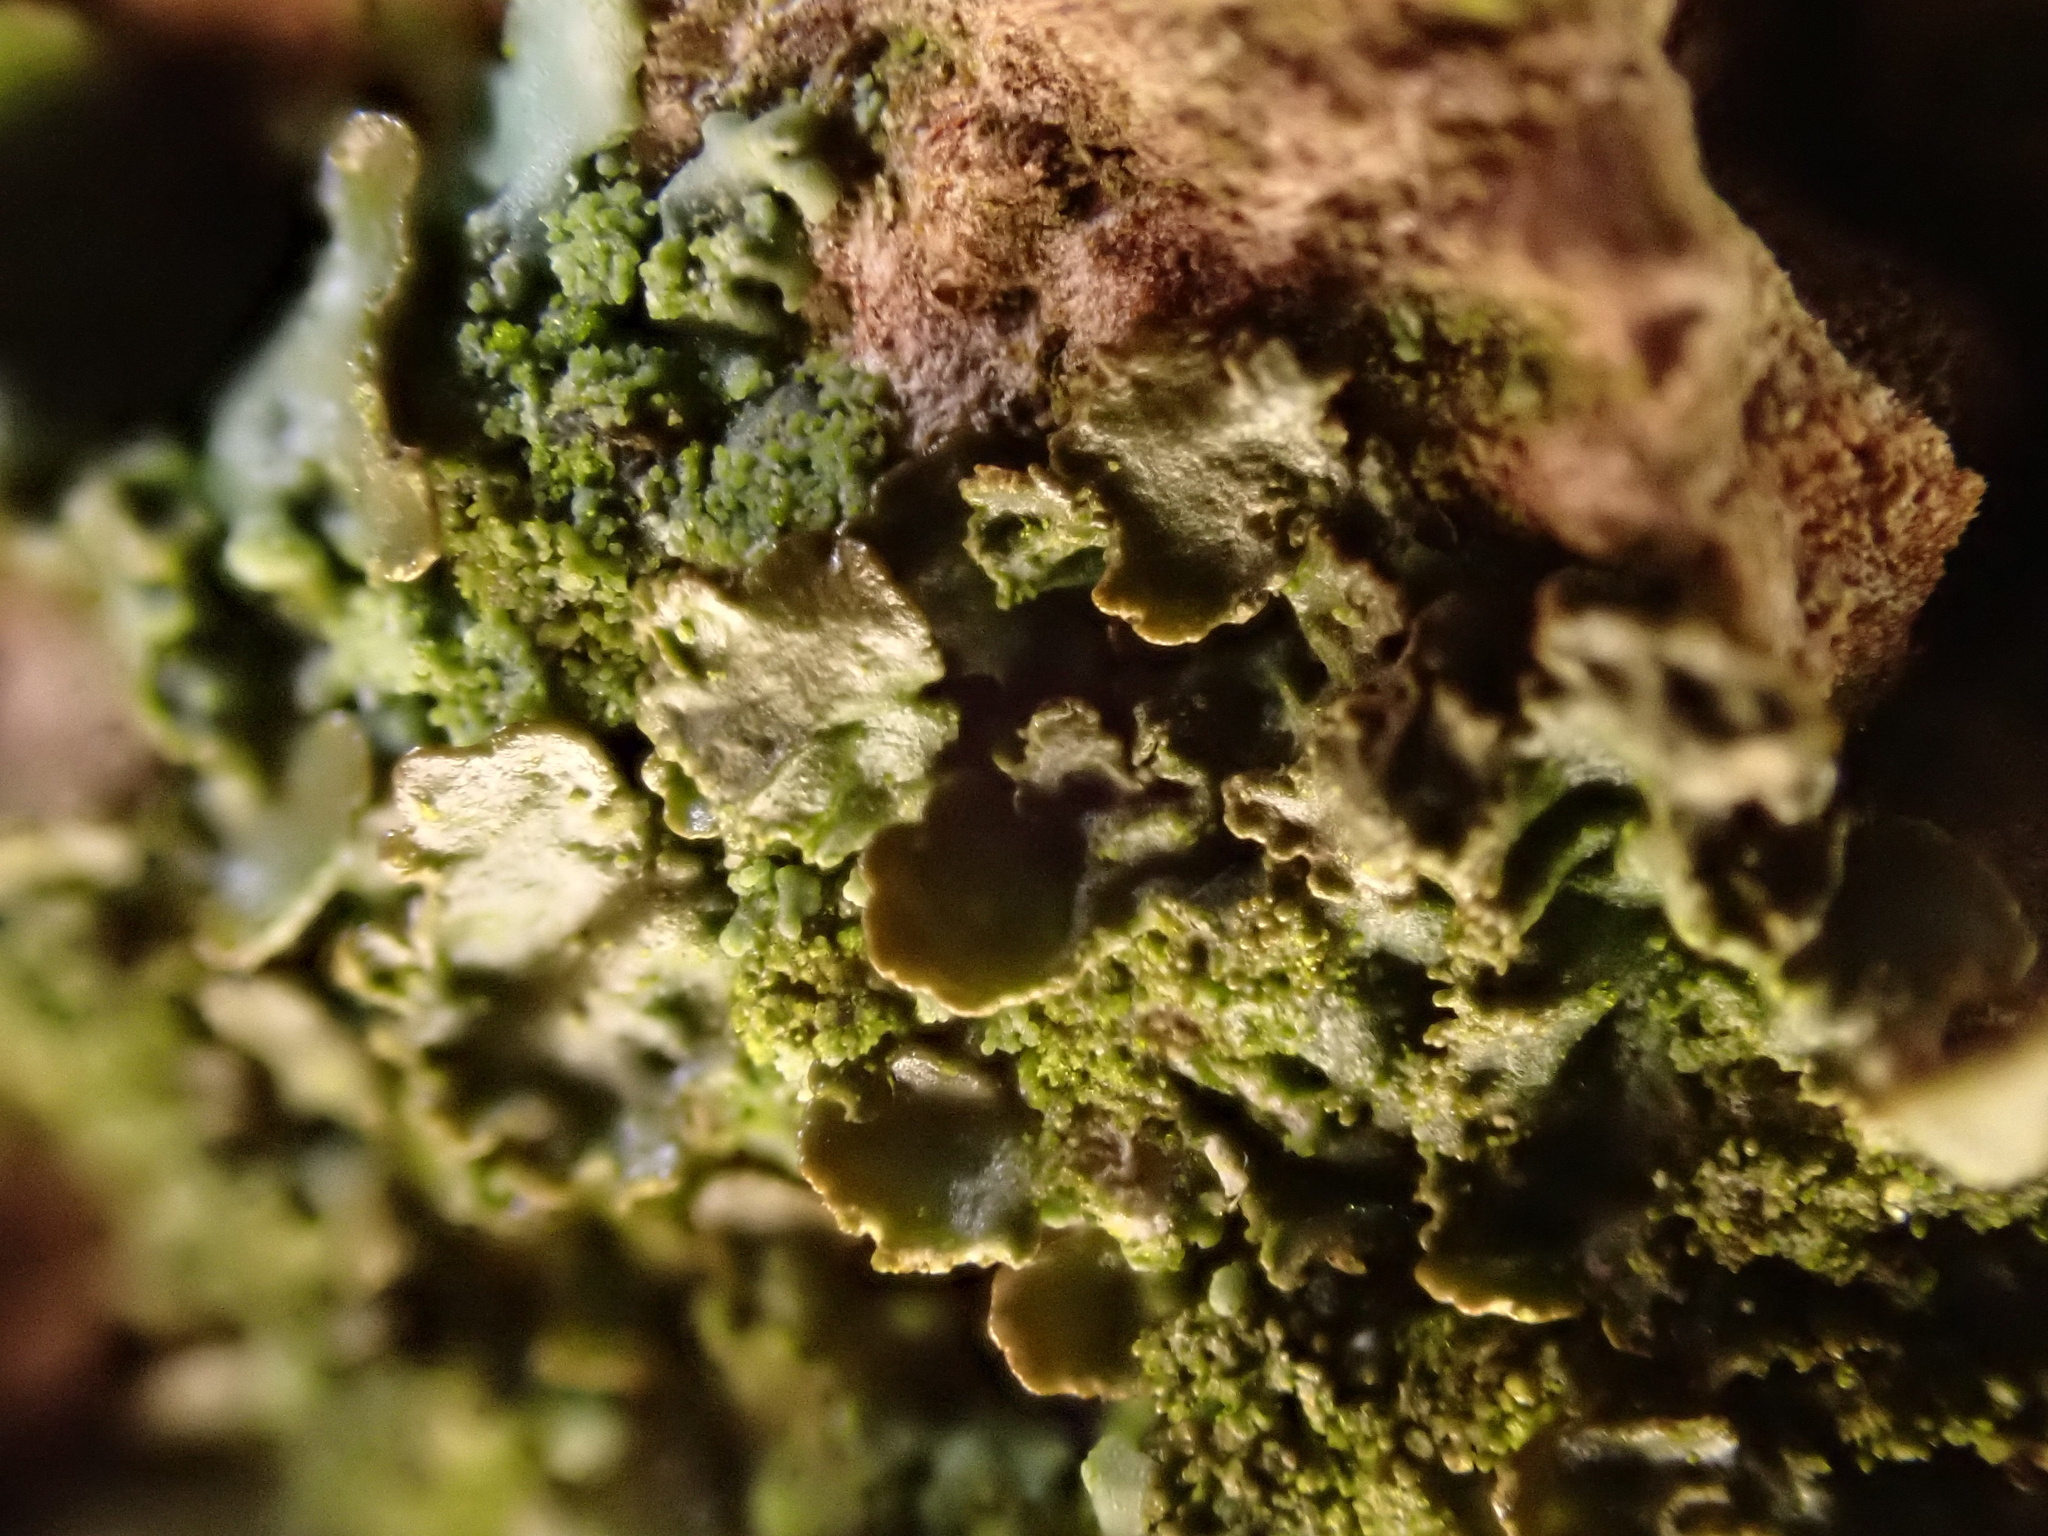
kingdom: Fungi
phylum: Ascomycota
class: Lecanoromycetes
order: Lecanorales
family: Parmeliaceae
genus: Melanohalea
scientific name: Melanohalea exasperatula
